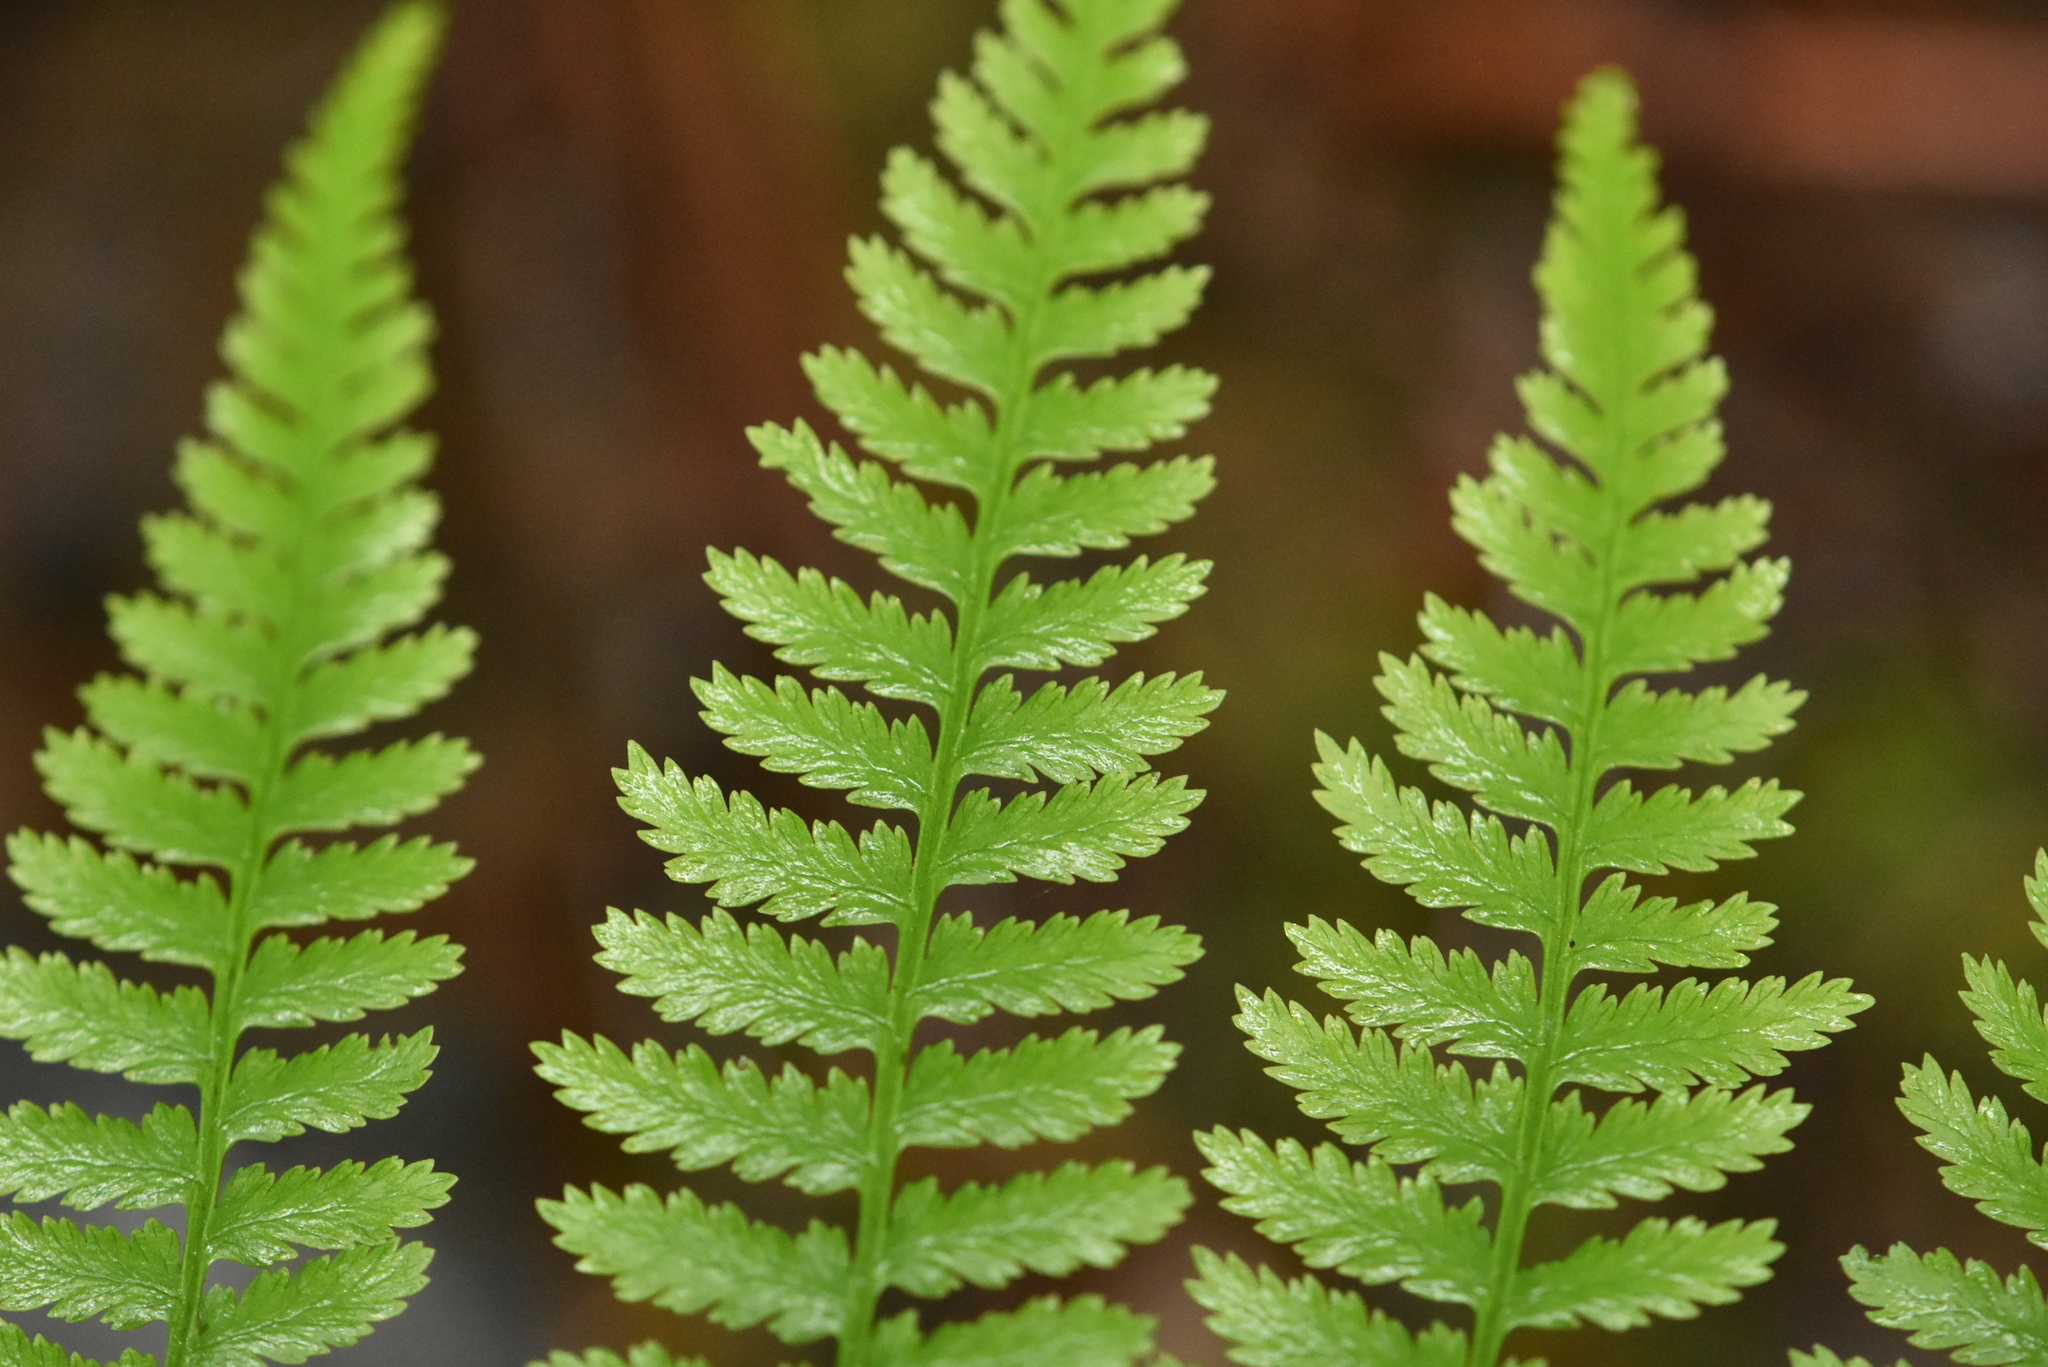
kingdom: Plantae
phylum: Tracheophyta
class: Polypodiopsida
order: Polypodiales
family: Athyriaceae
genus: Athyrium
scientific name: Athyrium filix-femina
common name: Lady fern
